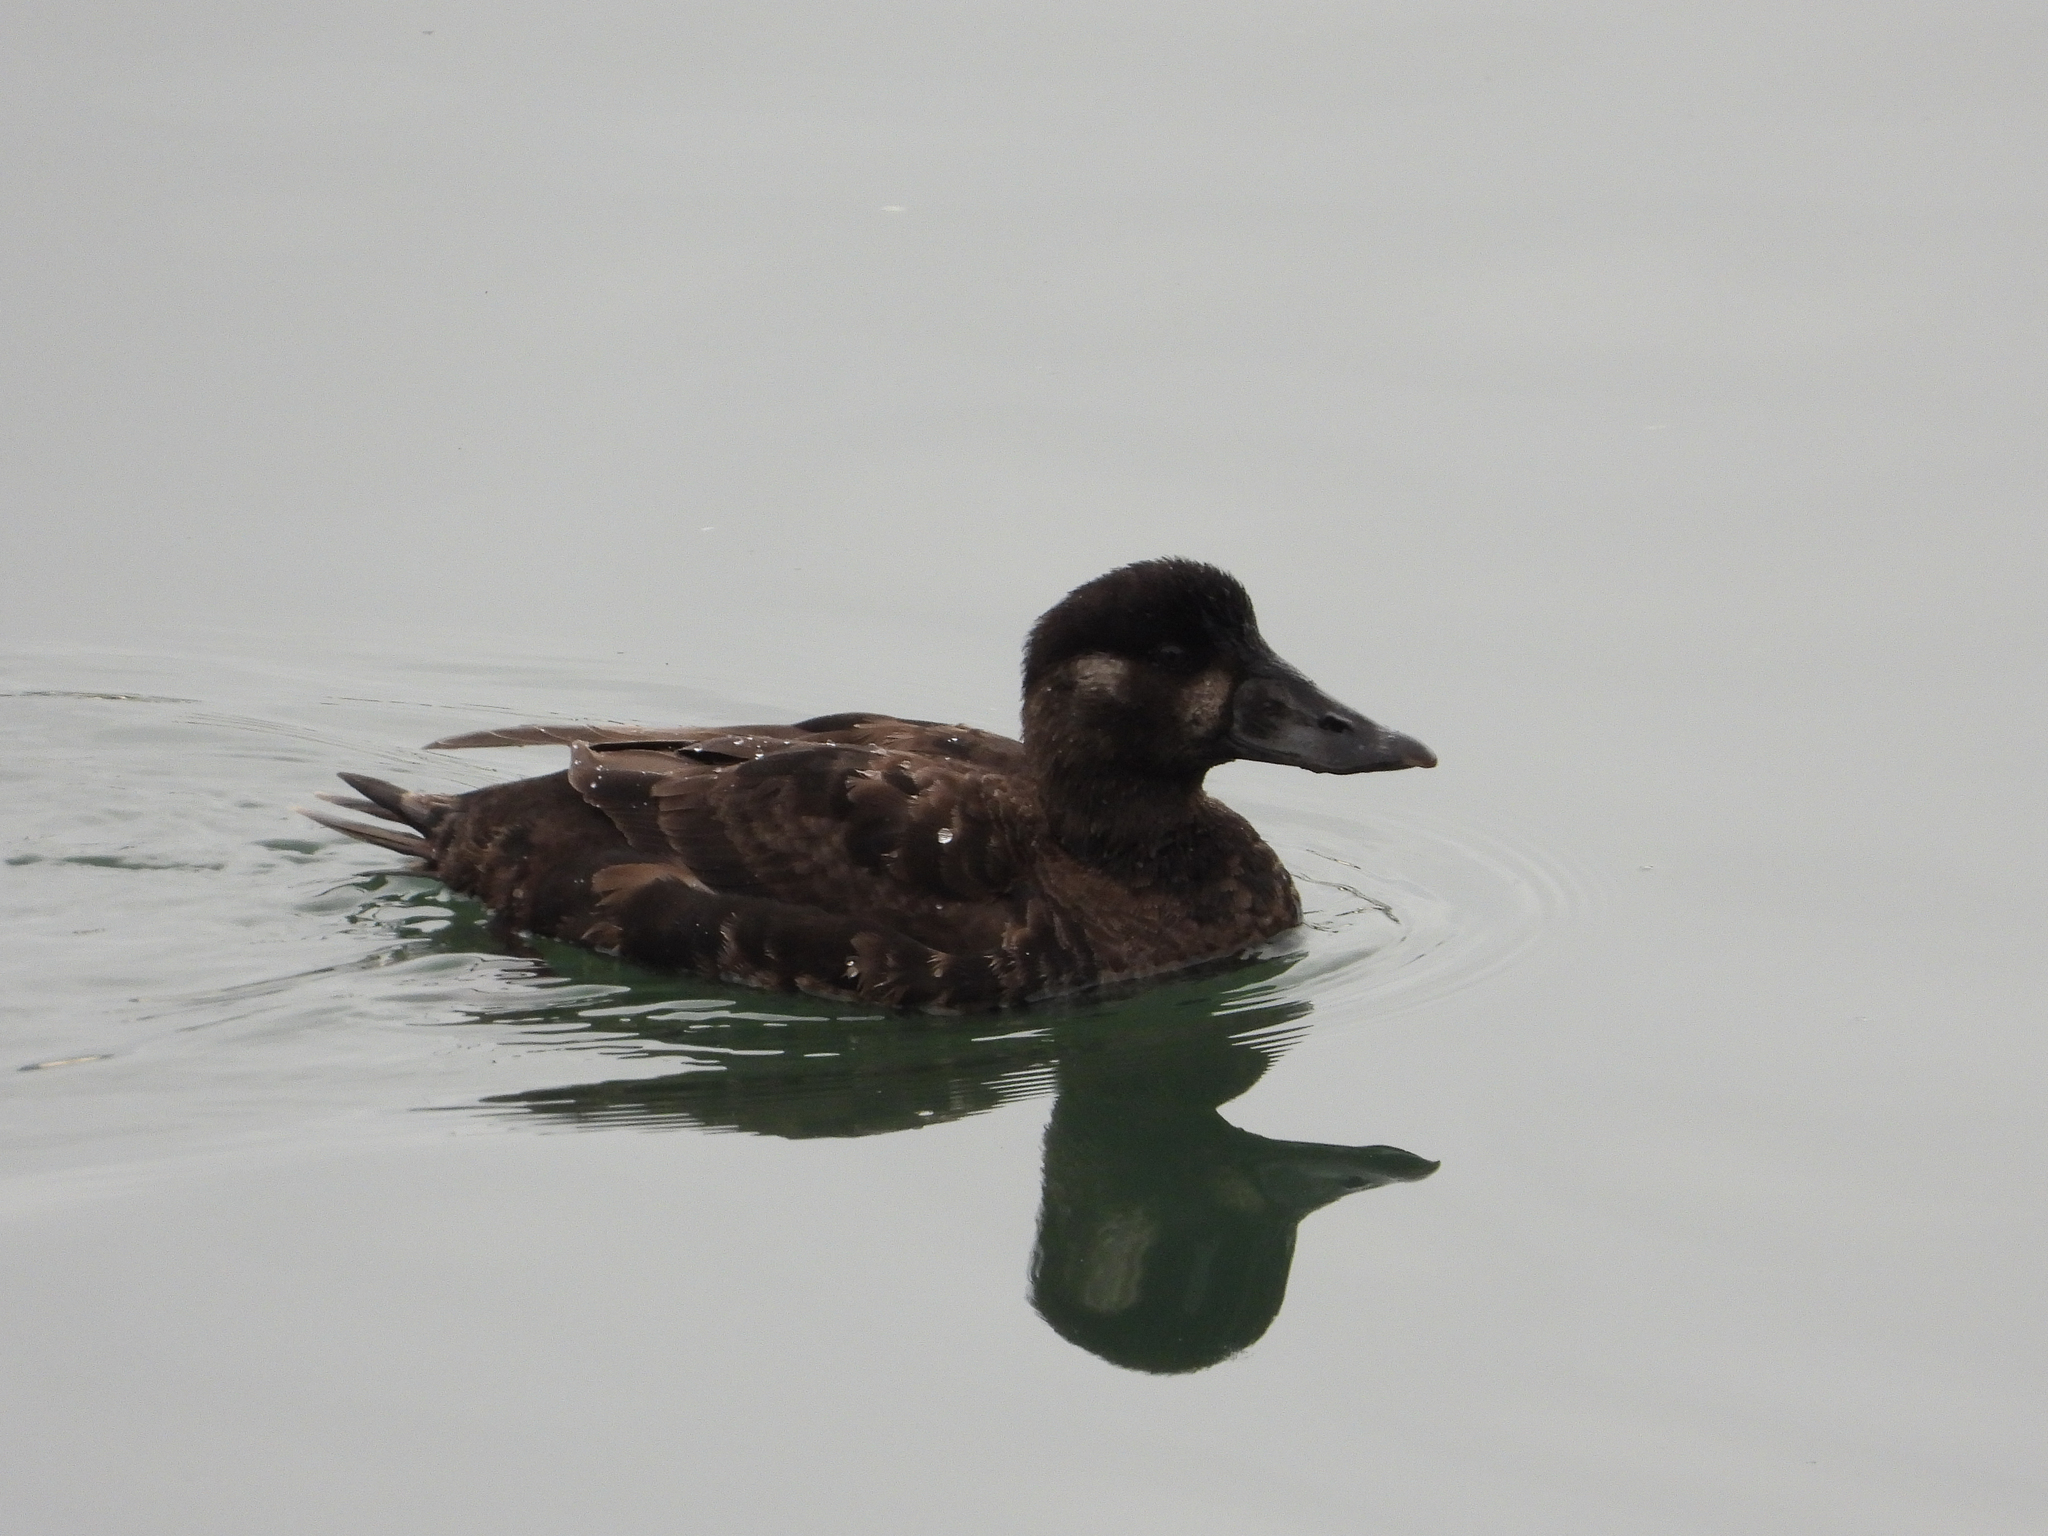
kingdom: Animalia
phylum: Chordata
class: Aves
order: Anseriformes
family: Anatidae
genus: Melanitta
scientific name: Melanitta perspicillata
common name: Surf scoter
